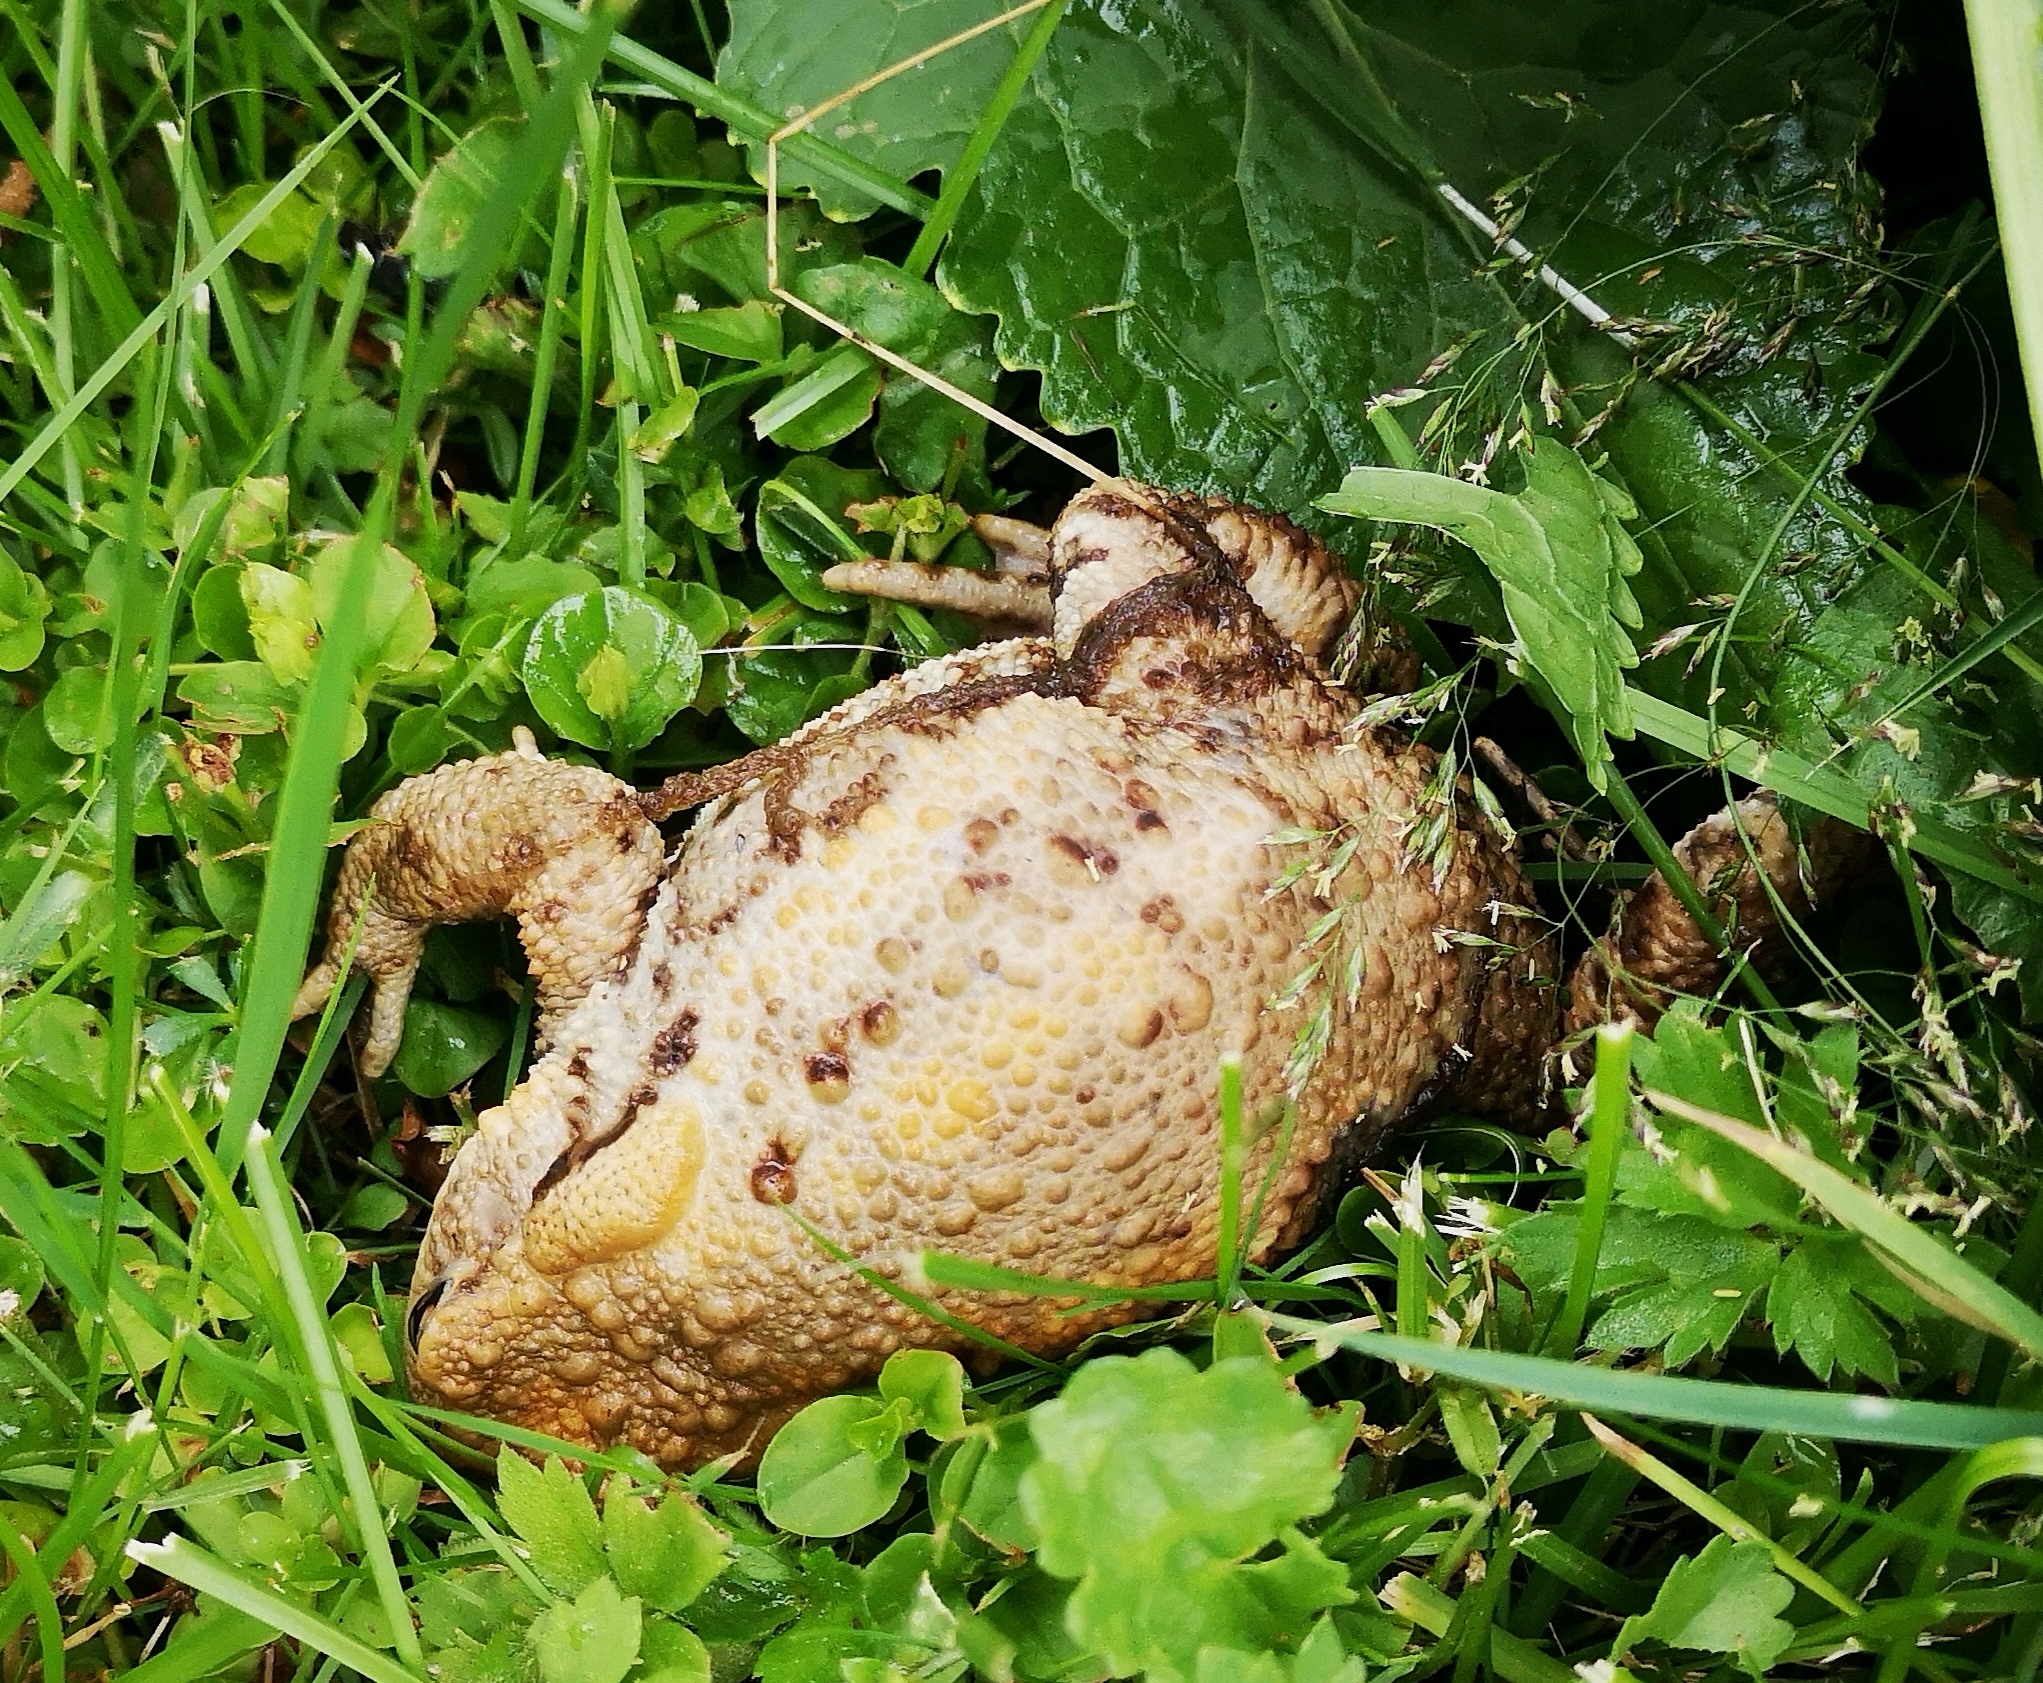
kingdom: Animalia
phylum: Chordata
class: Amphibia
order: Anura
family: Bufonidae
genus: Bufo
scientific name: Bufo bufo
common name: Common toad
